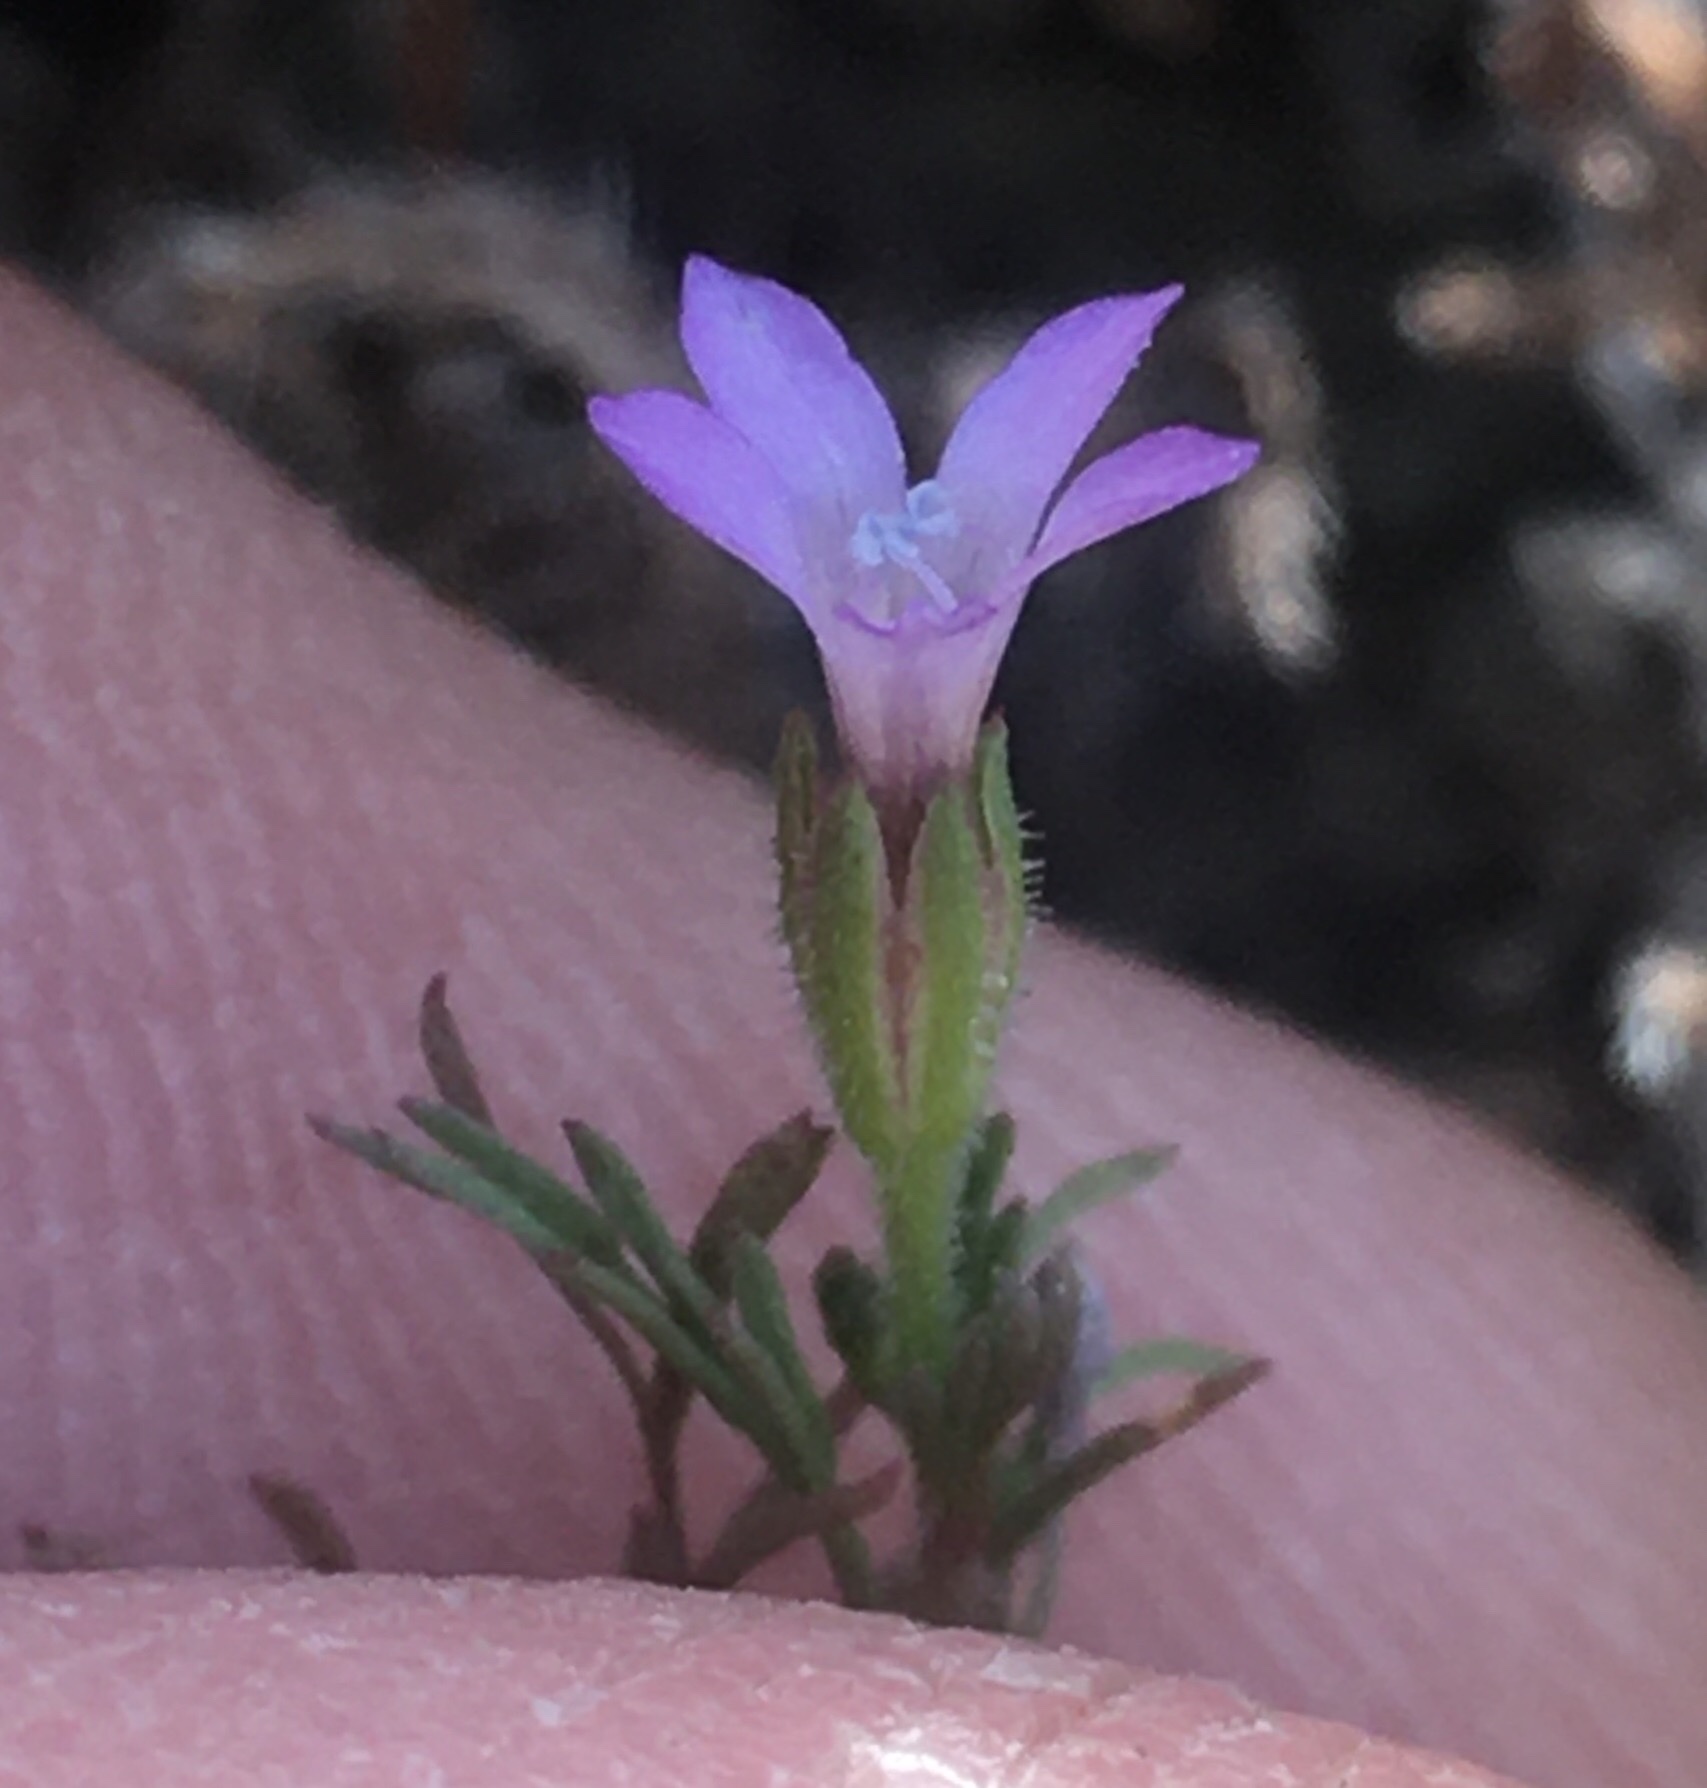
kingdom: Plantae
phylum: Tracheophyta
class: Magnoliopsida
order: Ericales
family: Polemoniaceae
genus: Gilia
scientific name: Gilia nevinii
